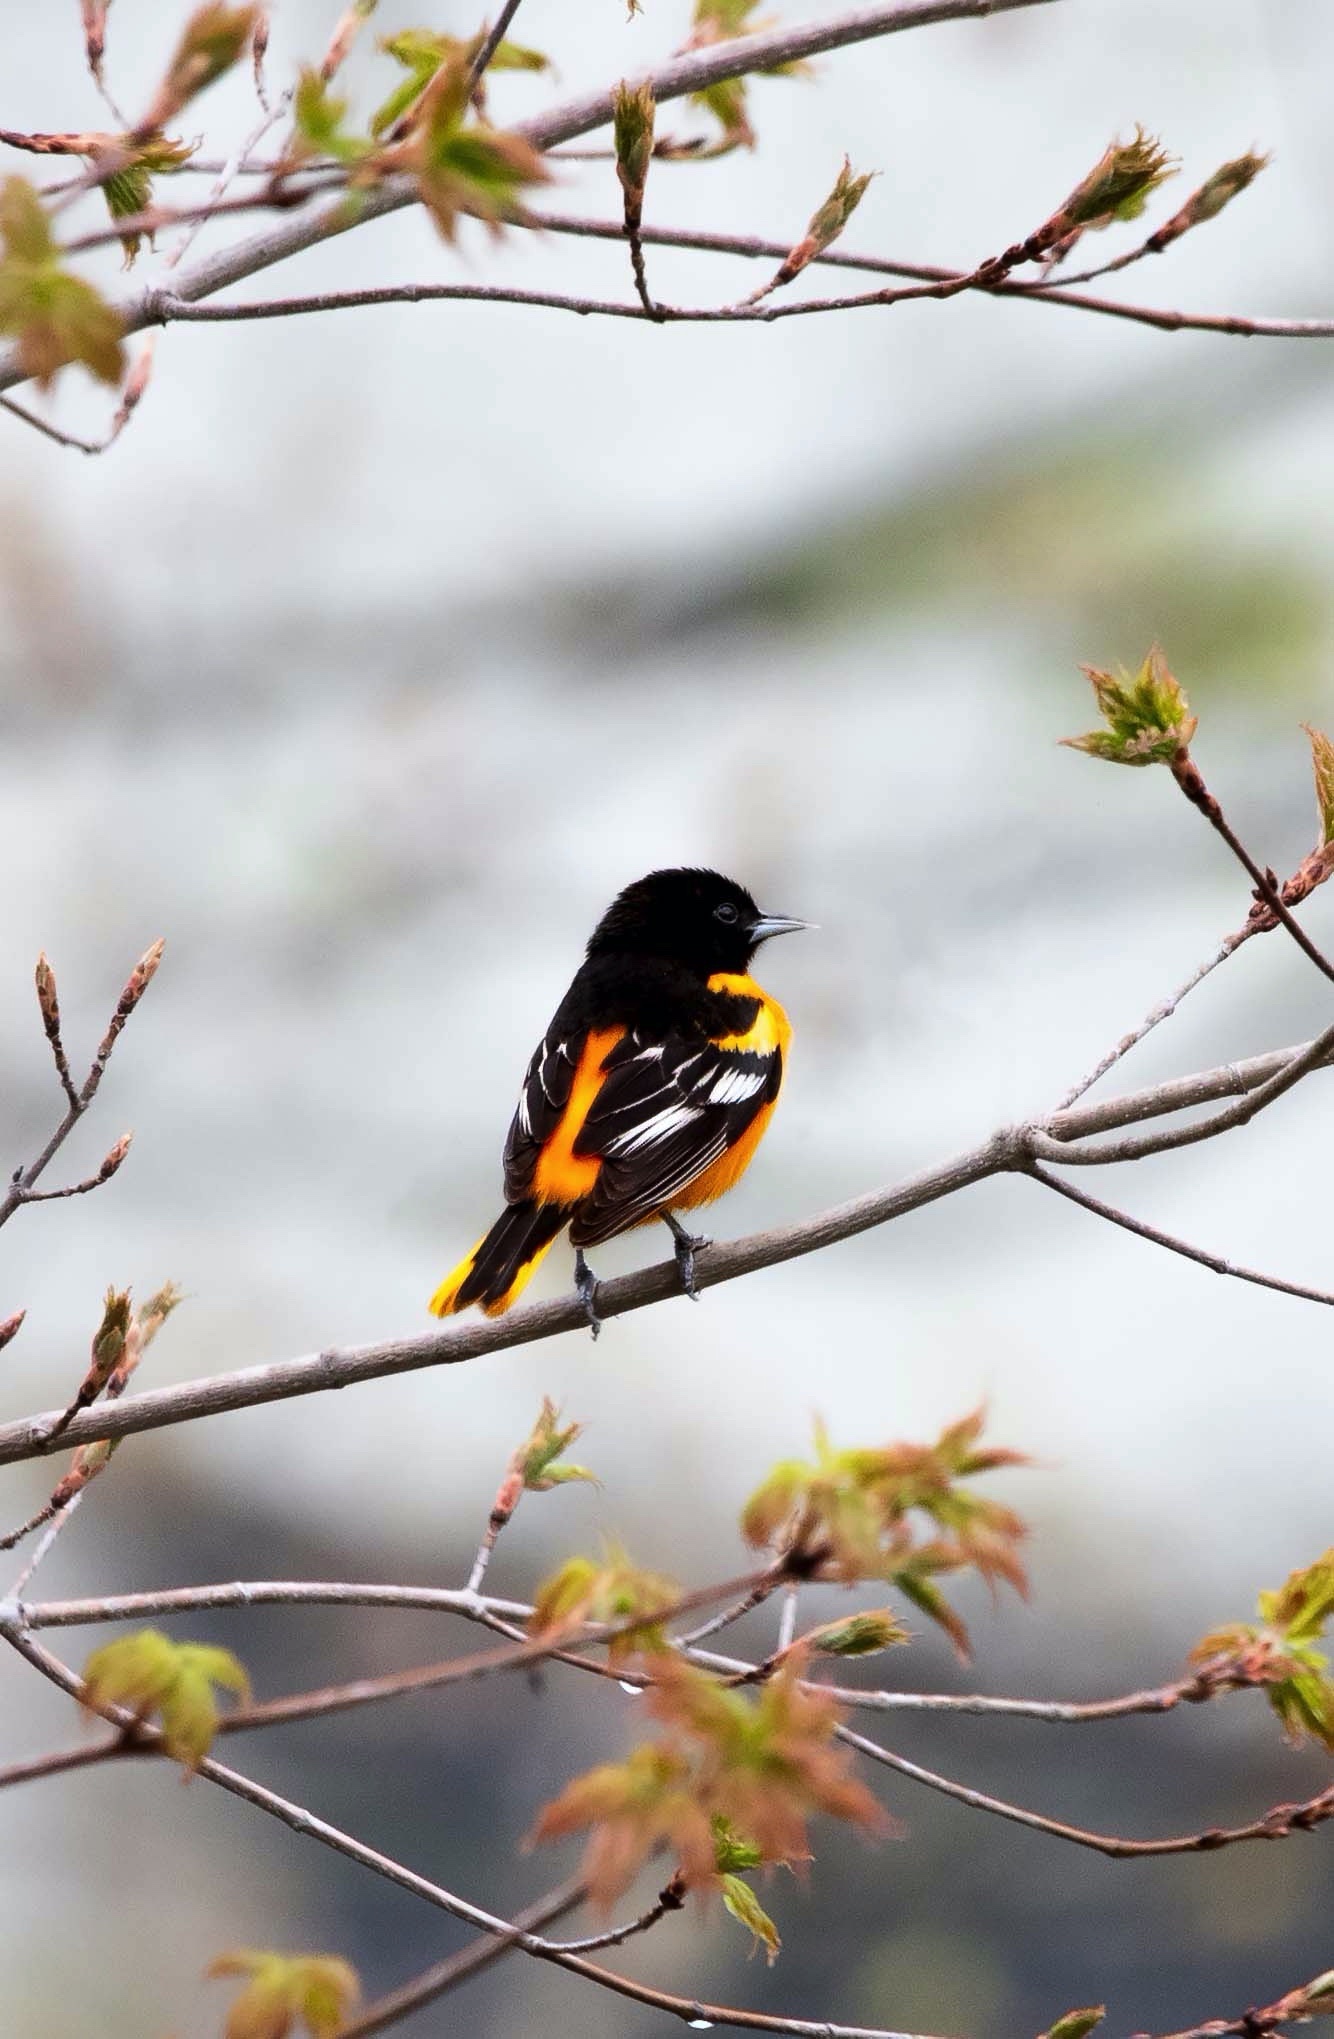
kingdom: Animalia
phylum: Chordata
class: Aves
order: Passeriformes
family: Icteridae
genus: Icterus
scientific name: Icterus galbula
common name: Baltimore oriole
